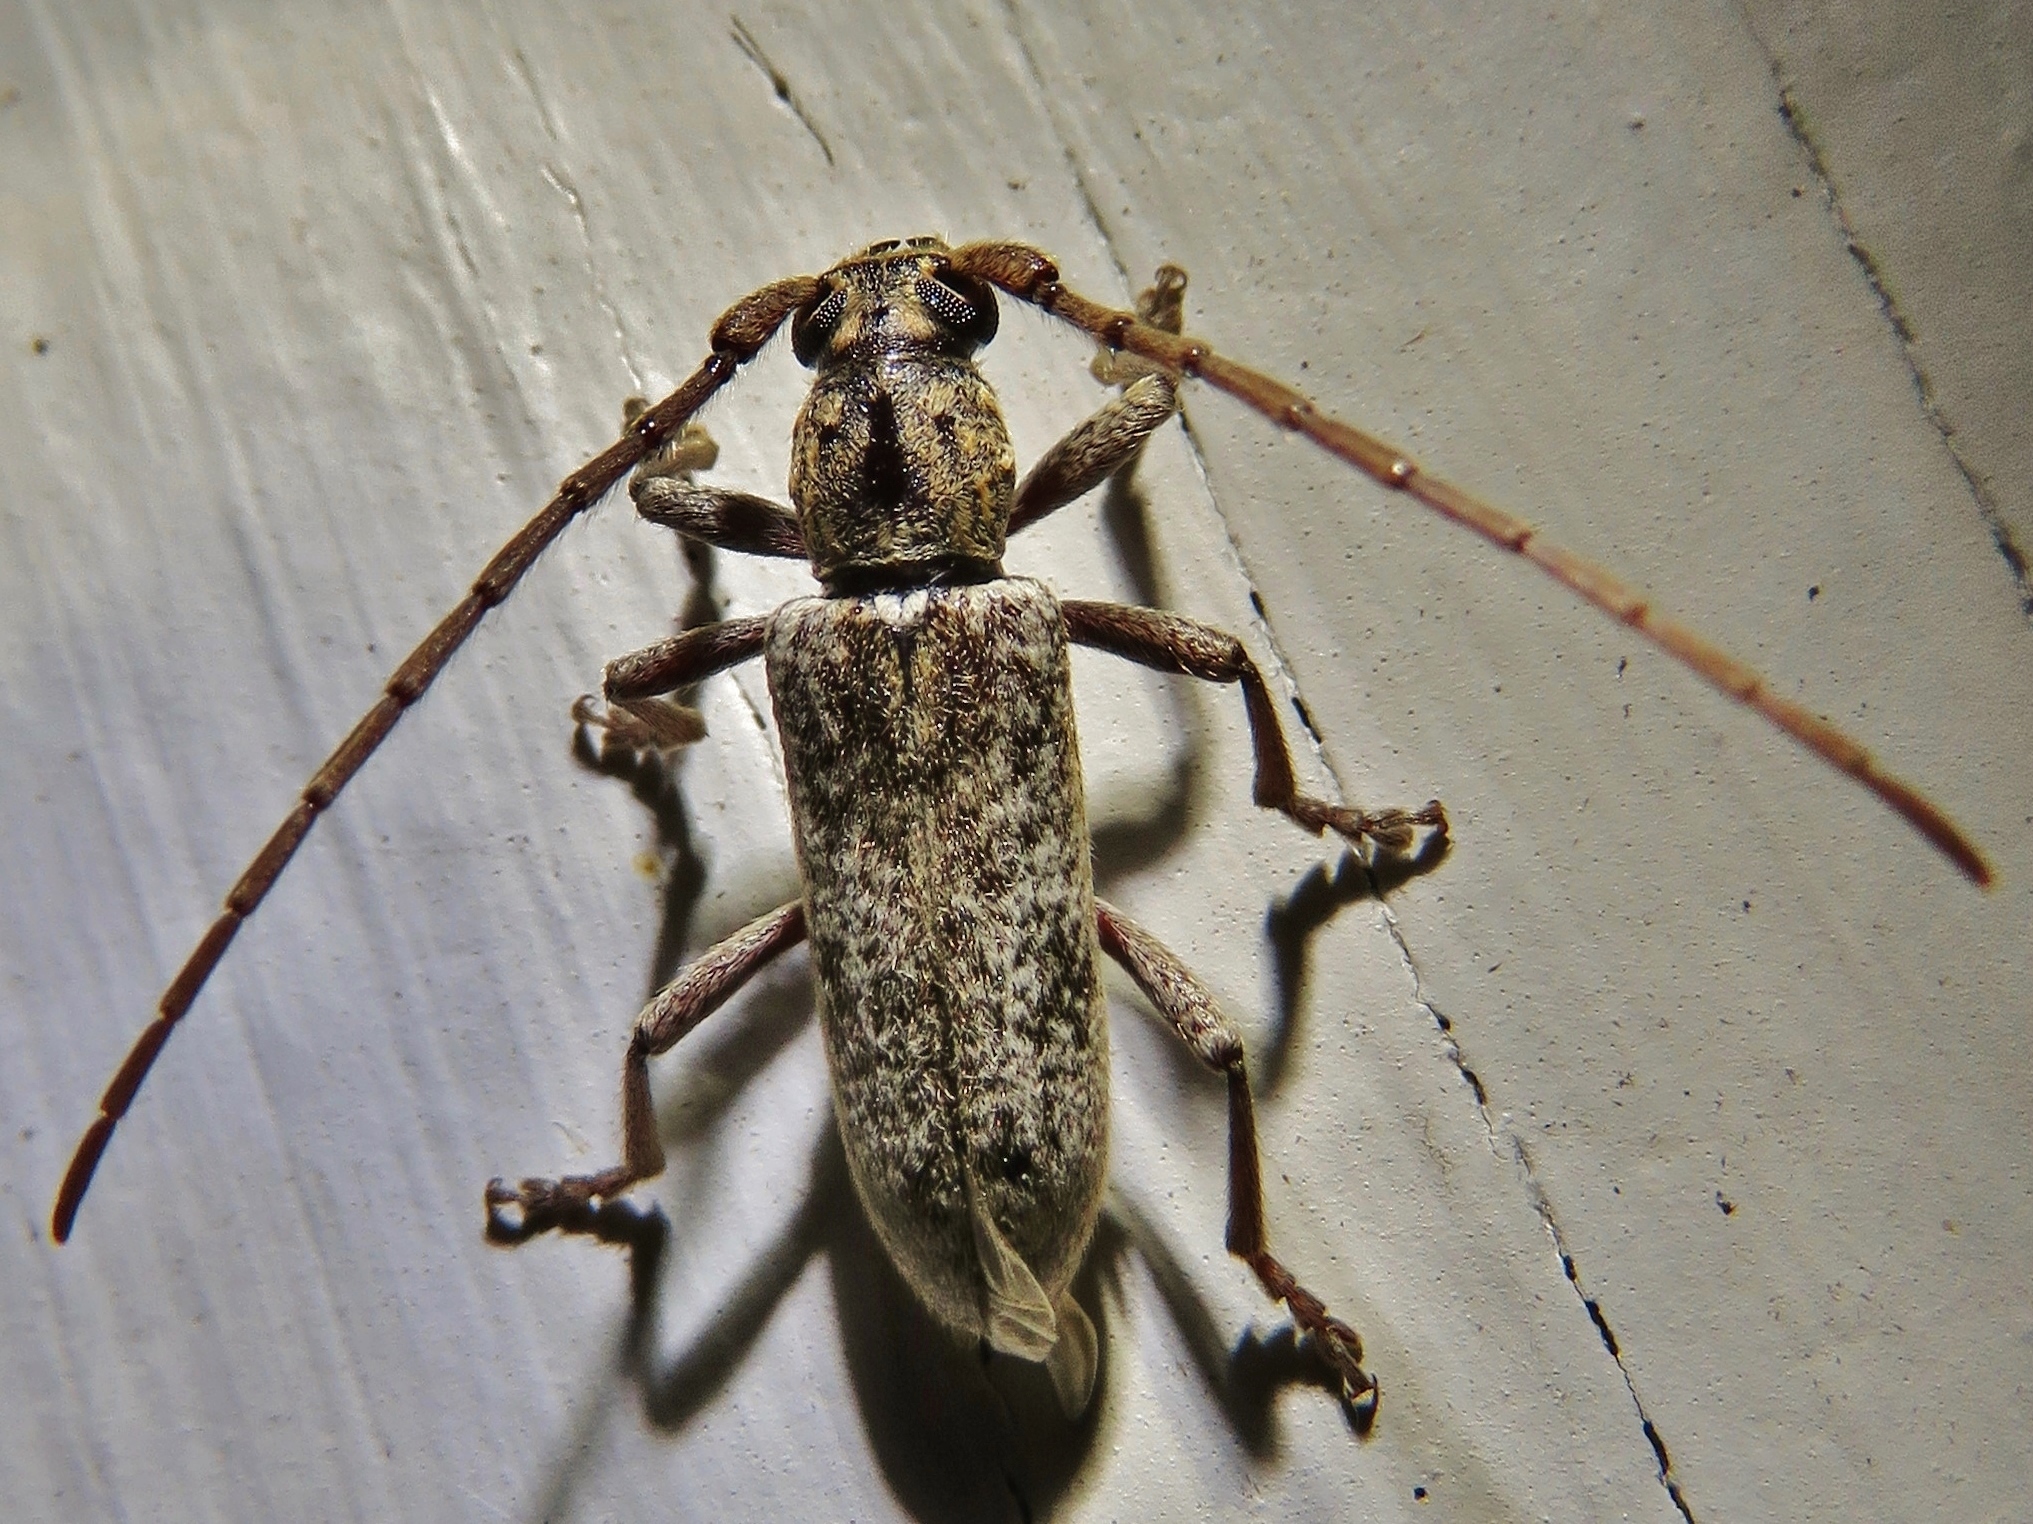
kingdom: Animalia
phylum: Arthropoda
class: Insecta
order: Coleoptera
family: Cerambycidae
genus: Anelaphus
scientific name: Anelaphus debilis
